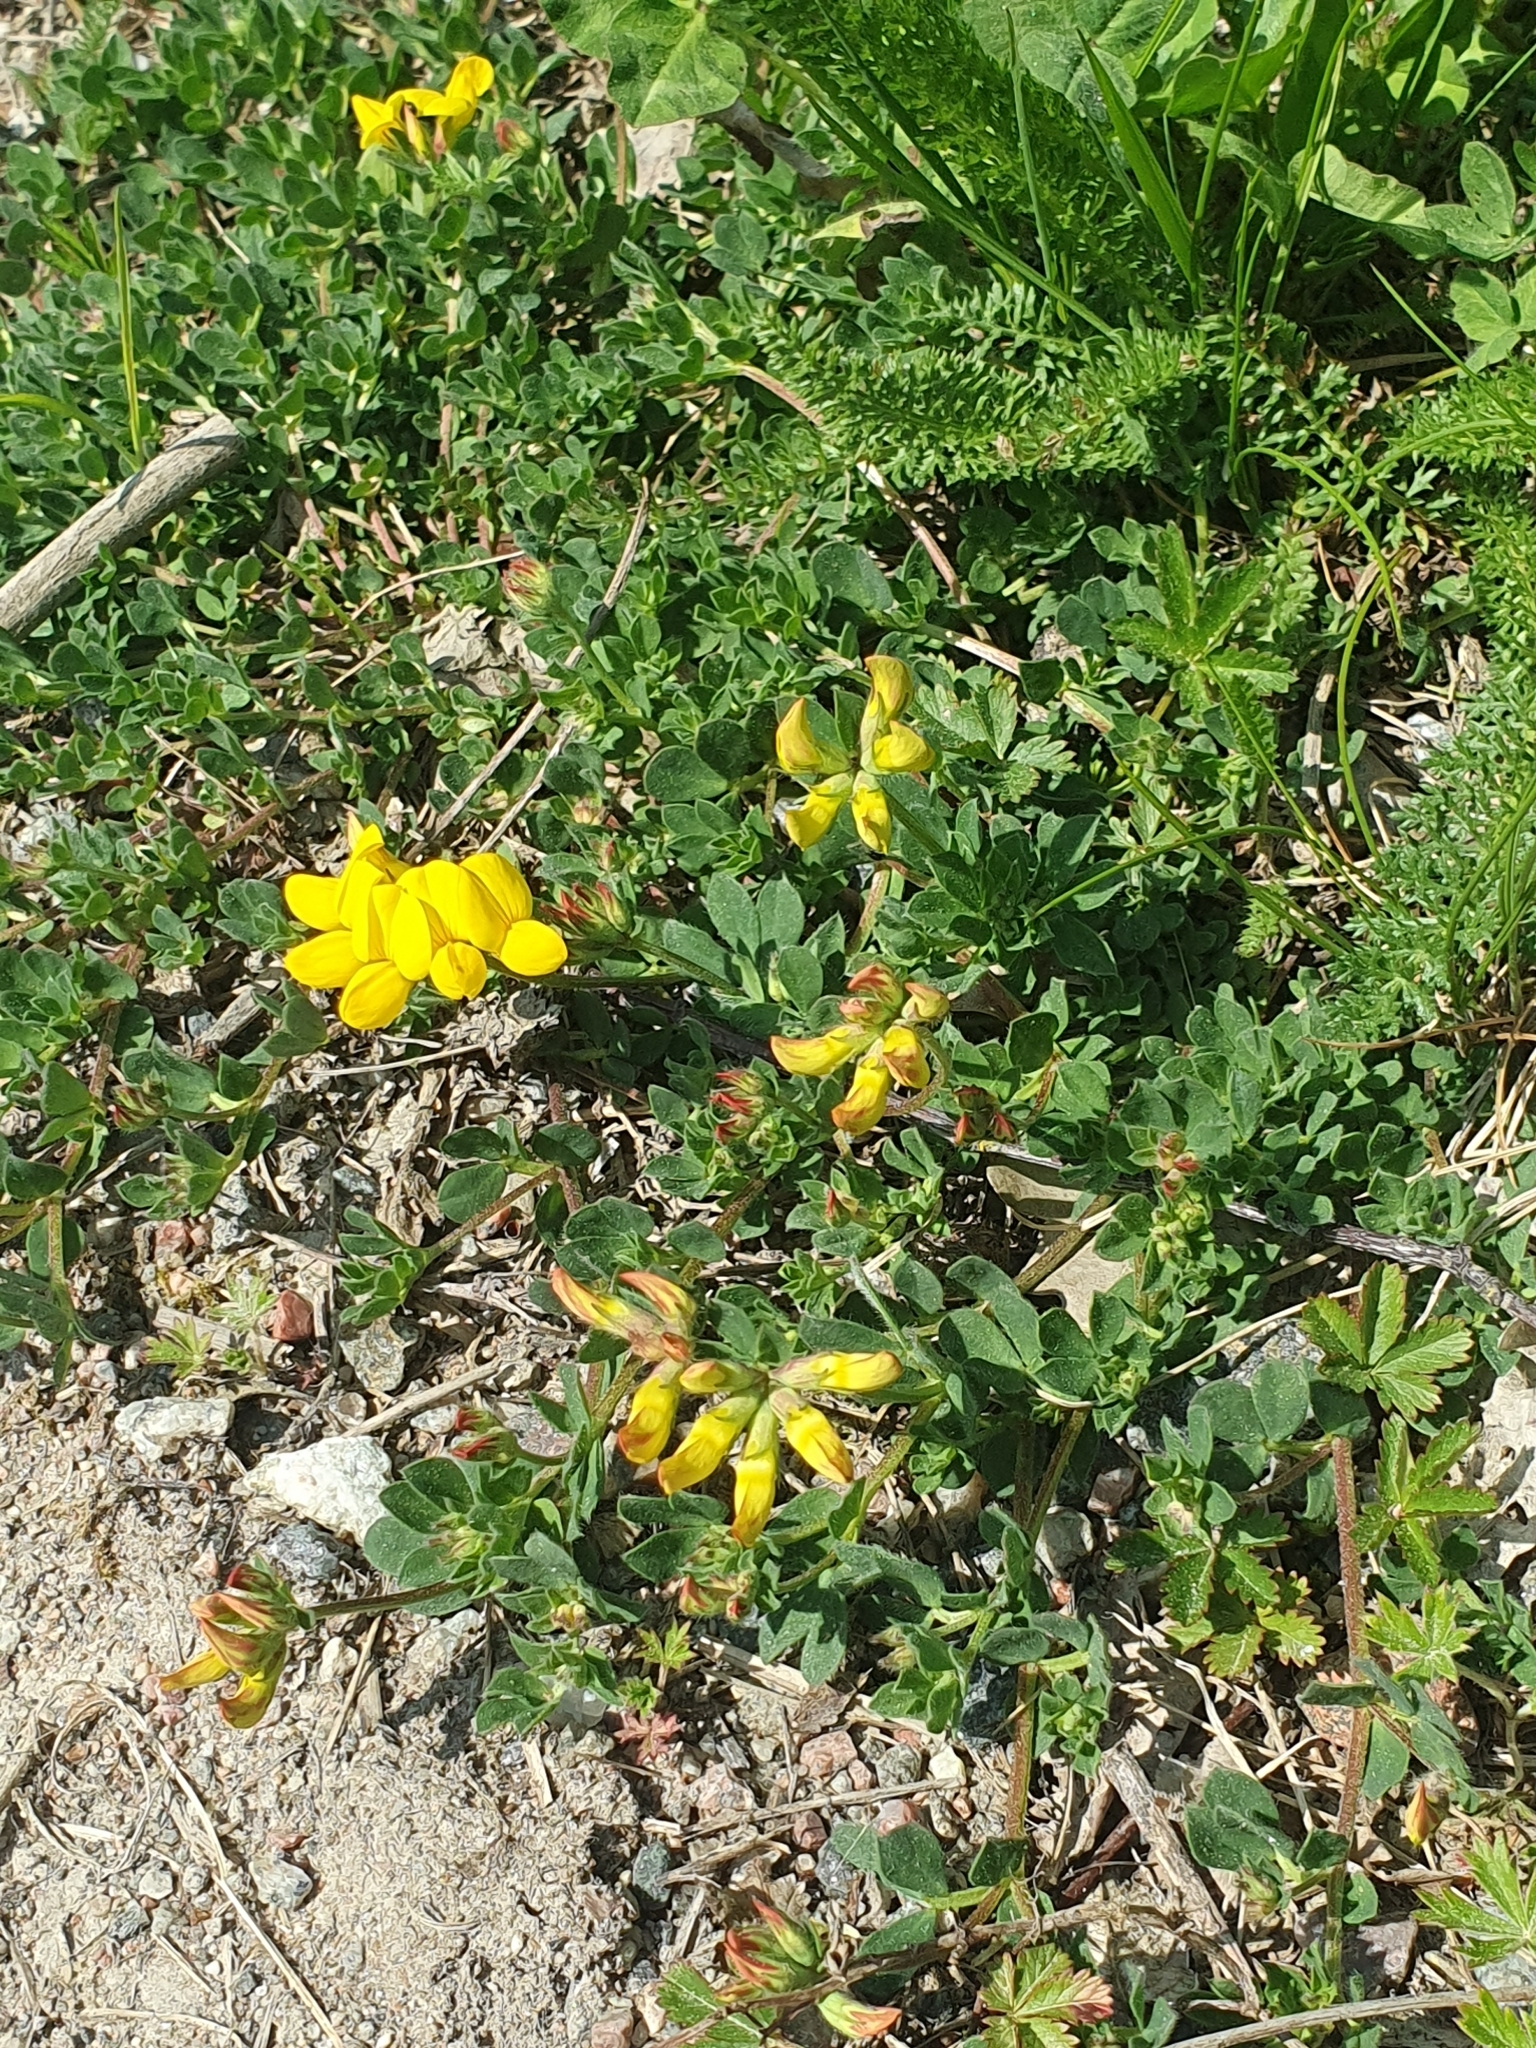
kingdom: Plantae
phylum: Tracheophyta
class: Magnoliopsida
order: Fabales
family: Fabaceae
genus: Lotus
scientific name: Lotus corniculatus
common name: Common bird's-foot-trefoil
